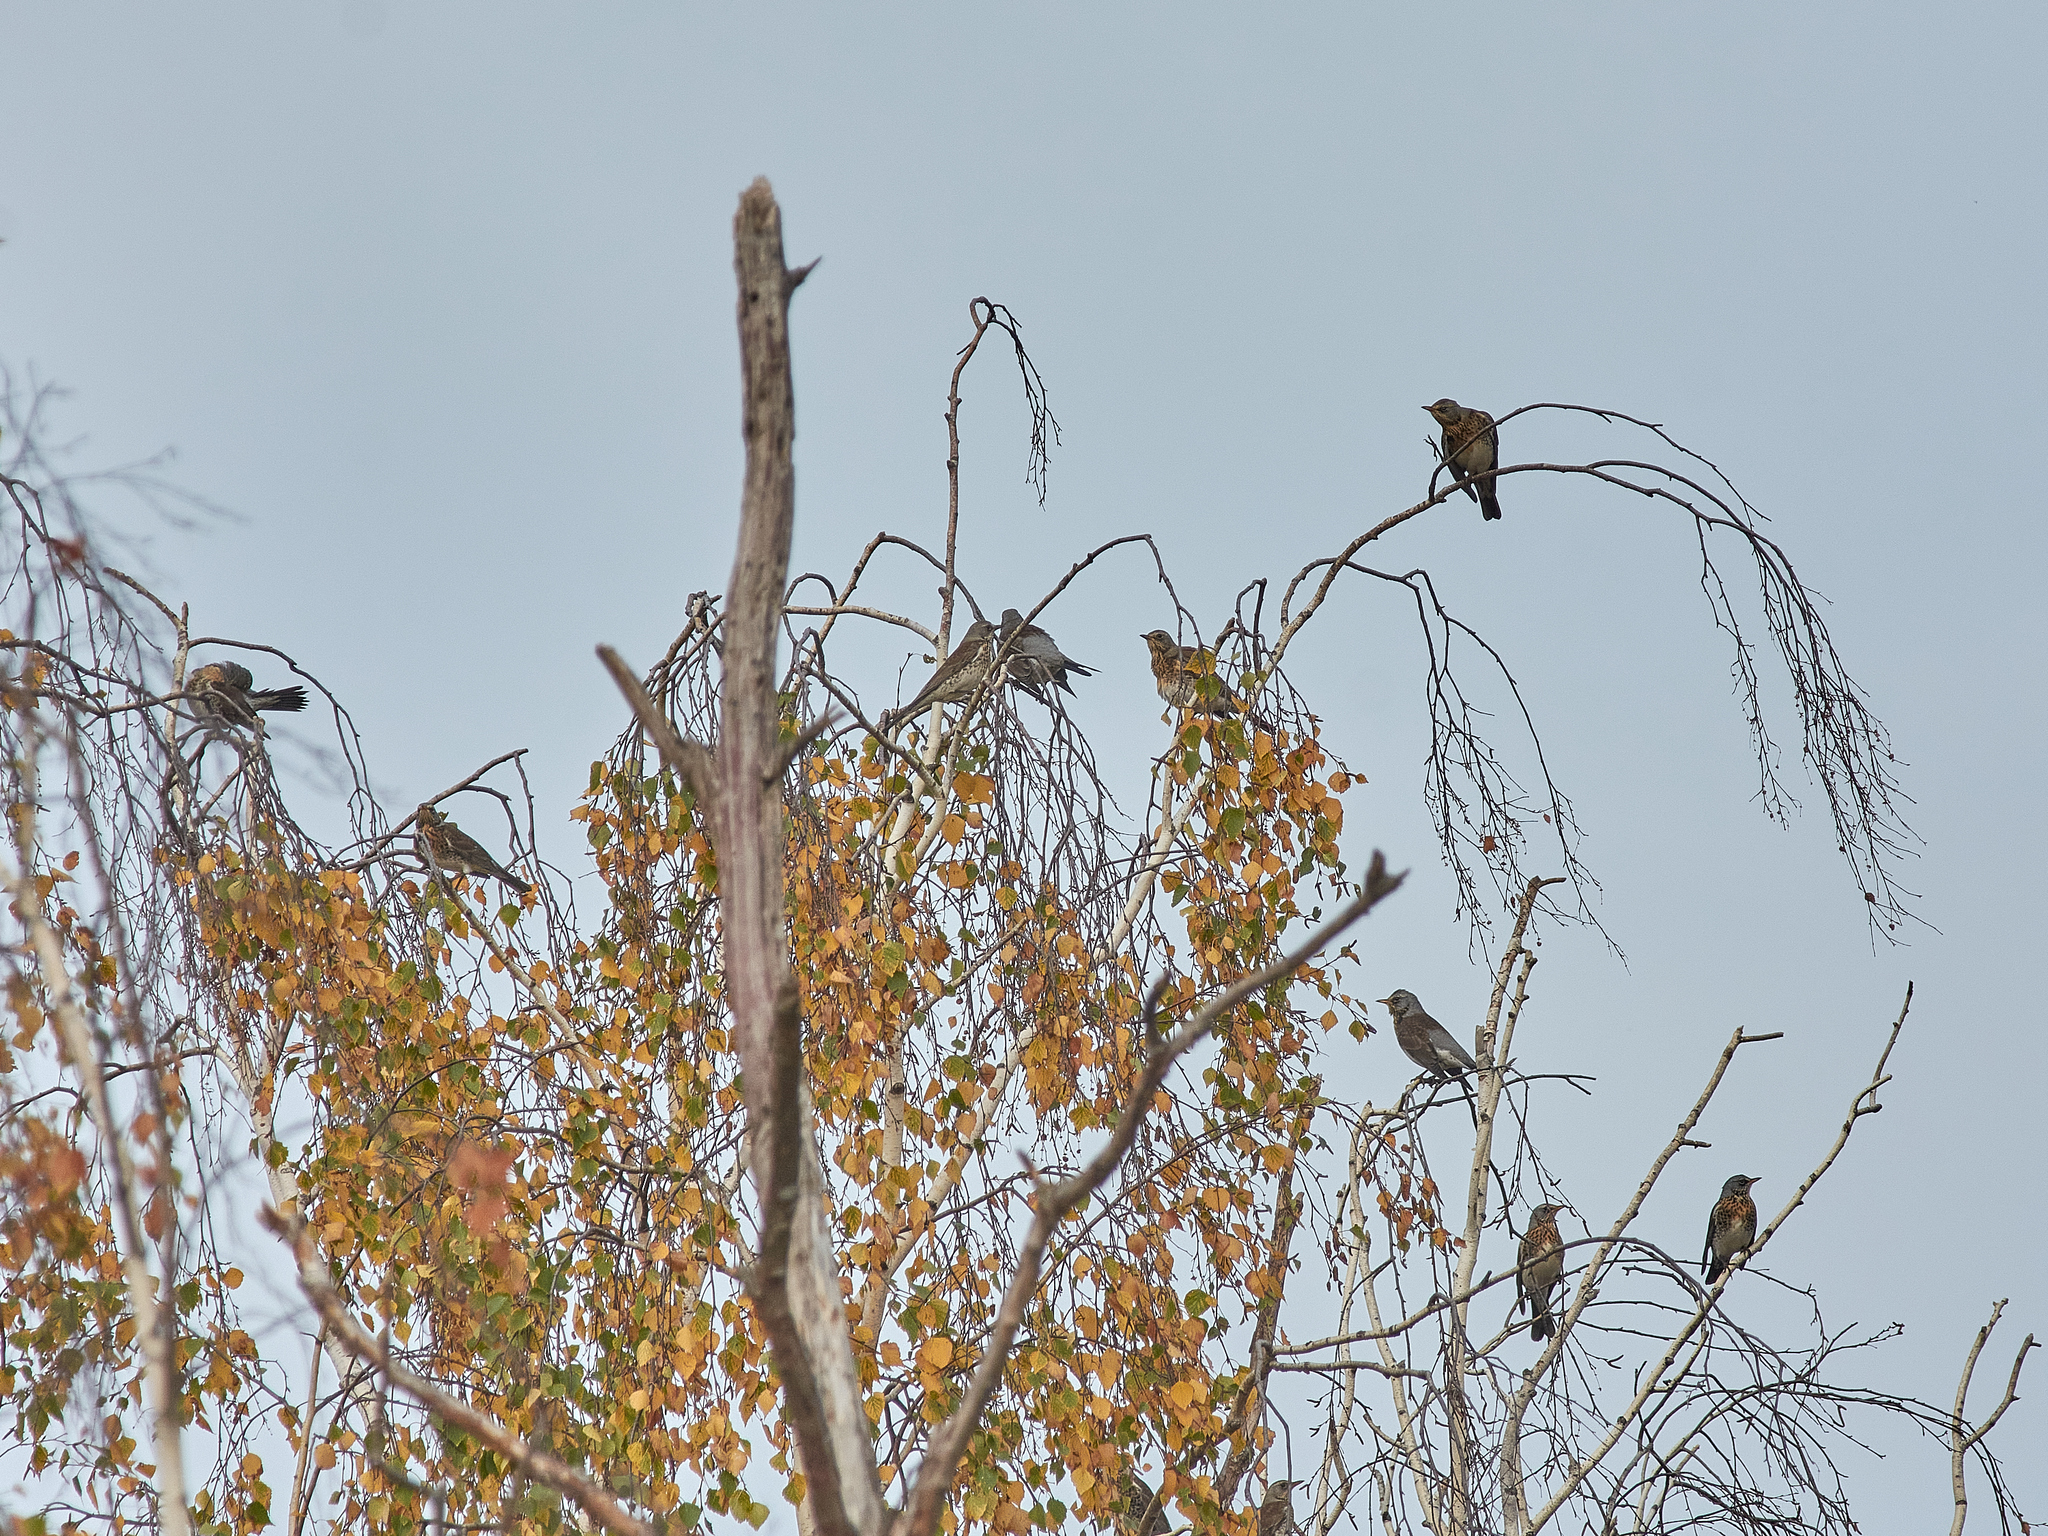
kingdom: Animalia
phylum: Chordata
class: Aves
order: Passeriformes
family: Turdidae
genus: Turdus
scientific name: Turdus pilaris
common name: Fieldfare
